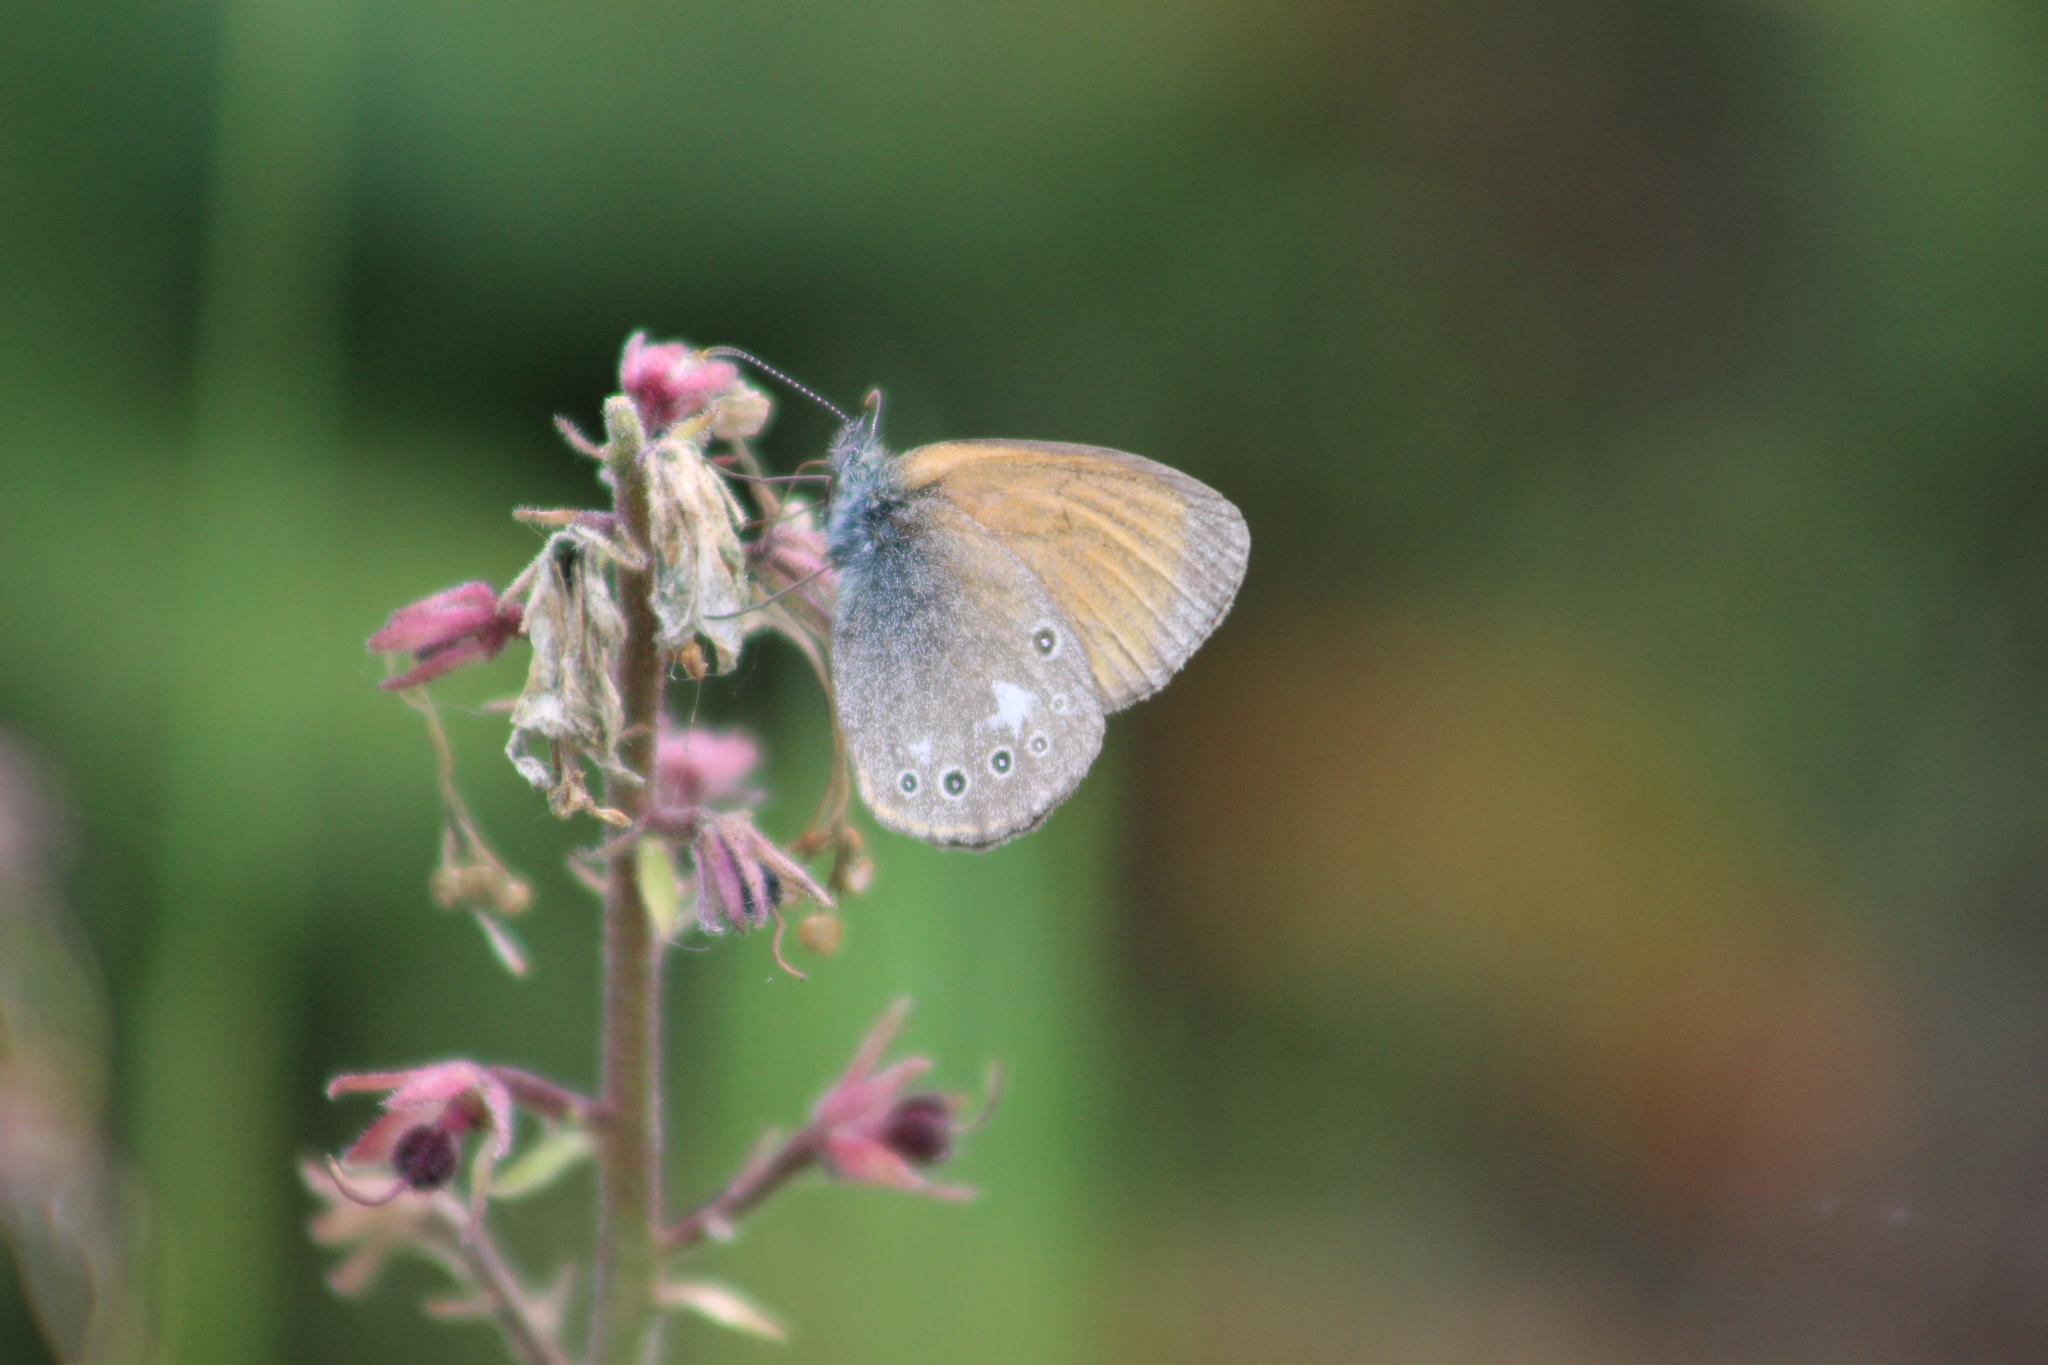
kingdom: Animalia
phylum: Arthropoda
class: Insecta
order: Lepidoptera
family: Nymphalidae
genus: Coenonympha
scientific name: Coenonympha iphis
